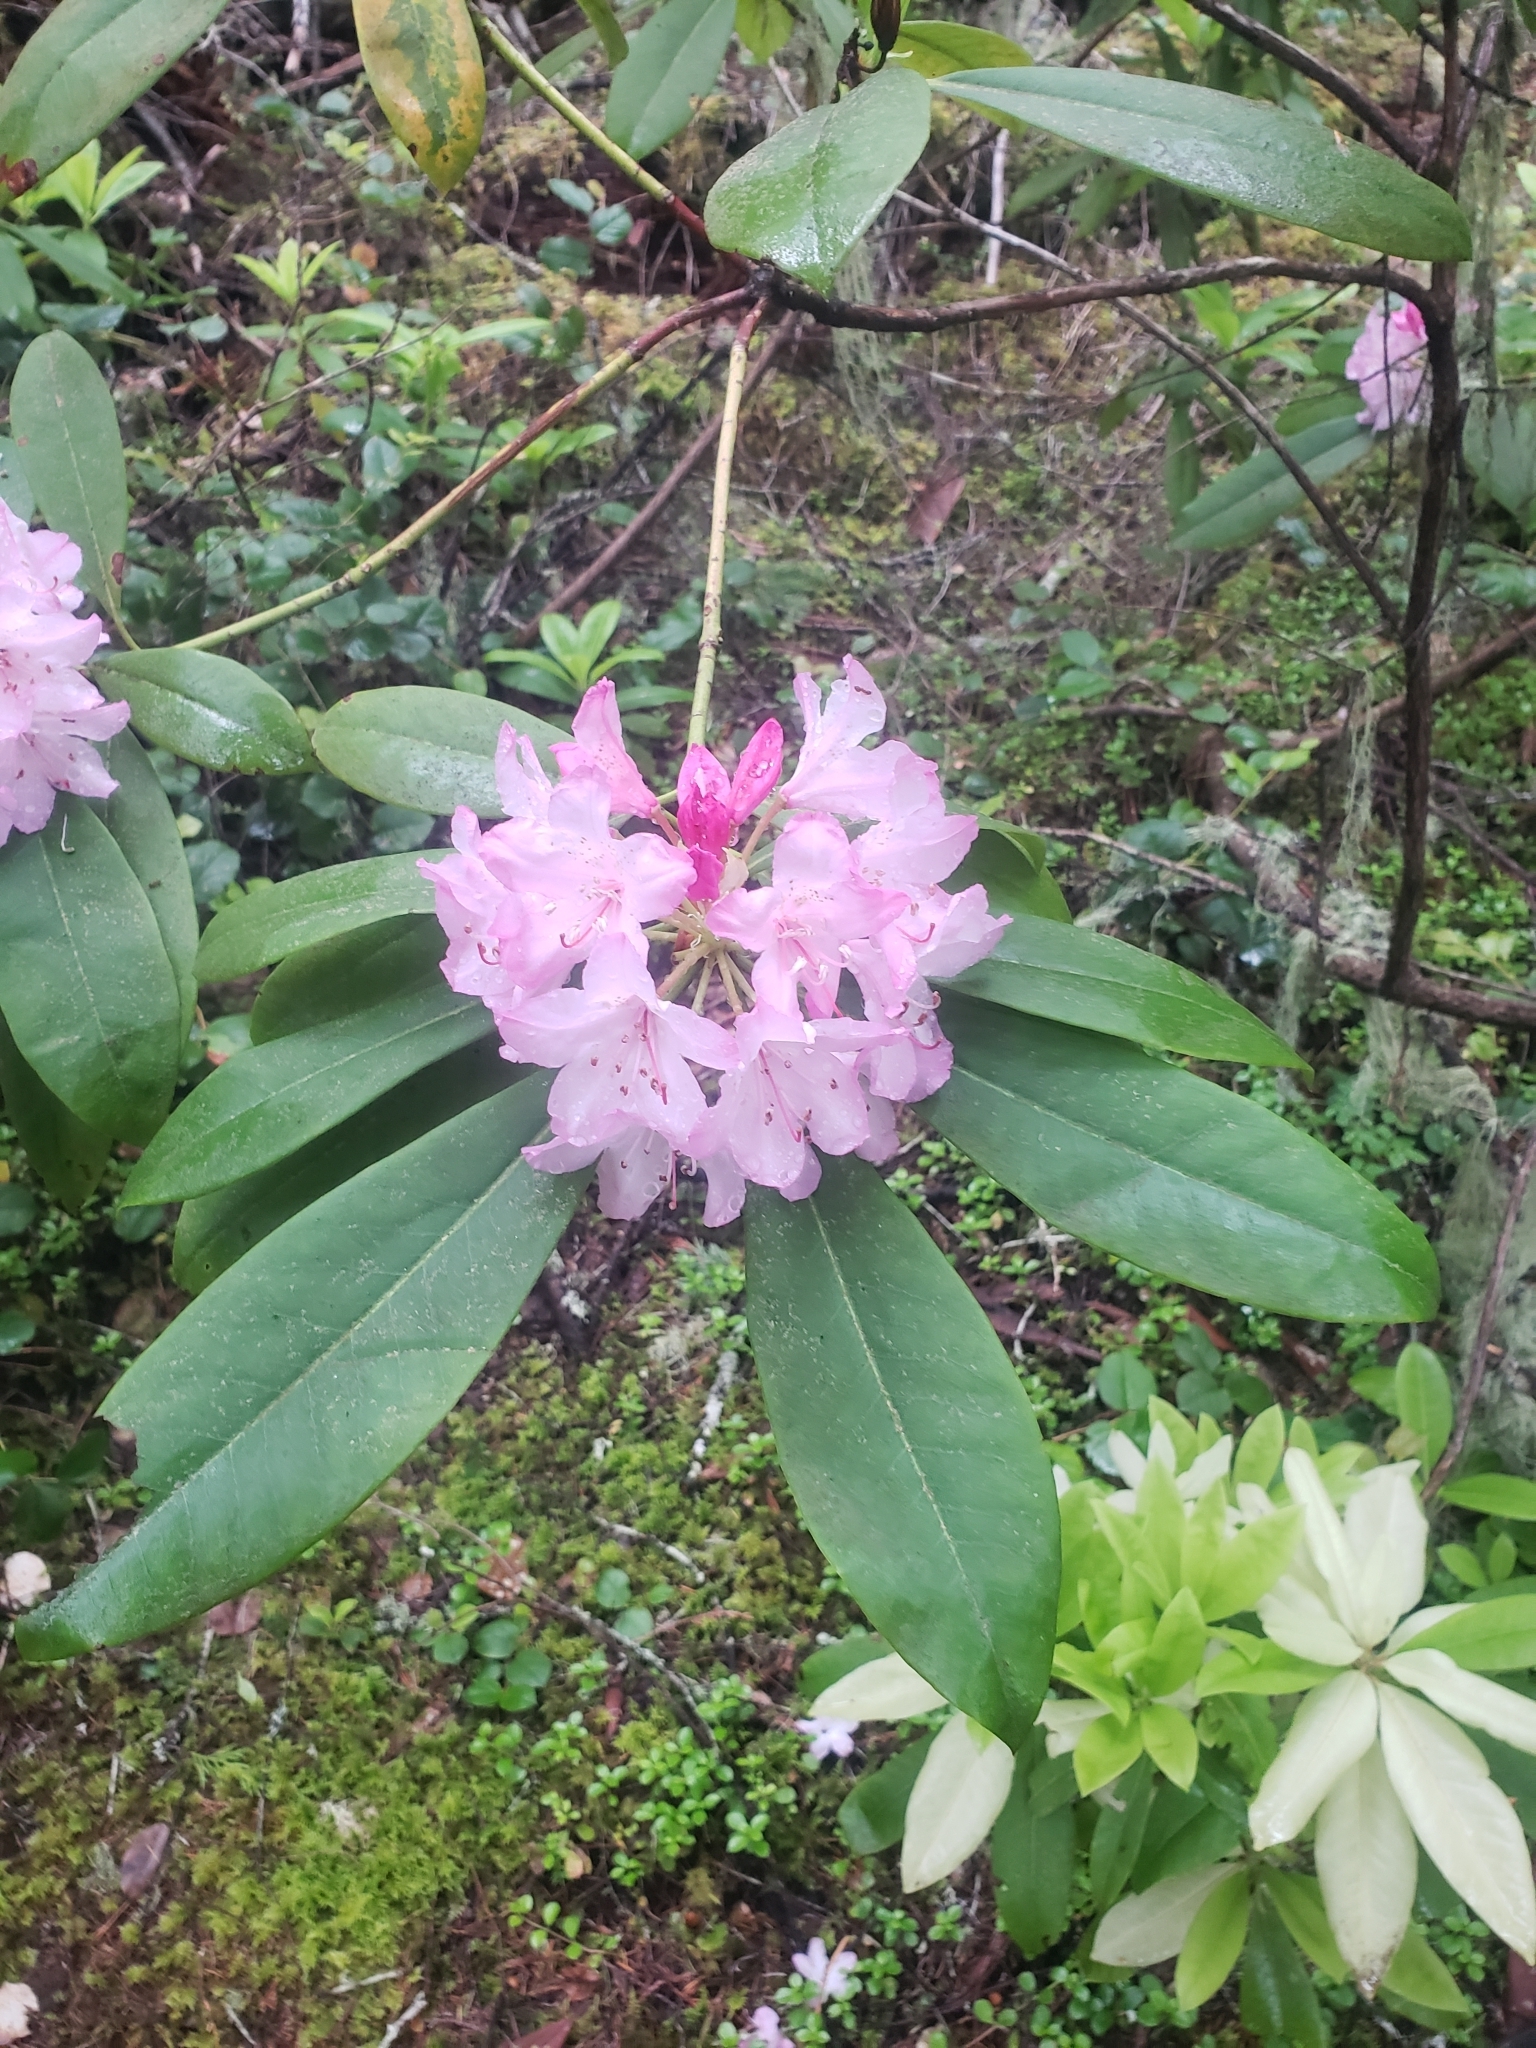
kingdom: Plantae
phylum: Tracheophyta
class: Magnoliopsida
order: Ericales
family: Ericaceae
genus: Rhododendron
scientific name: Rhododendron macrophyllum
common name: California rose bay
